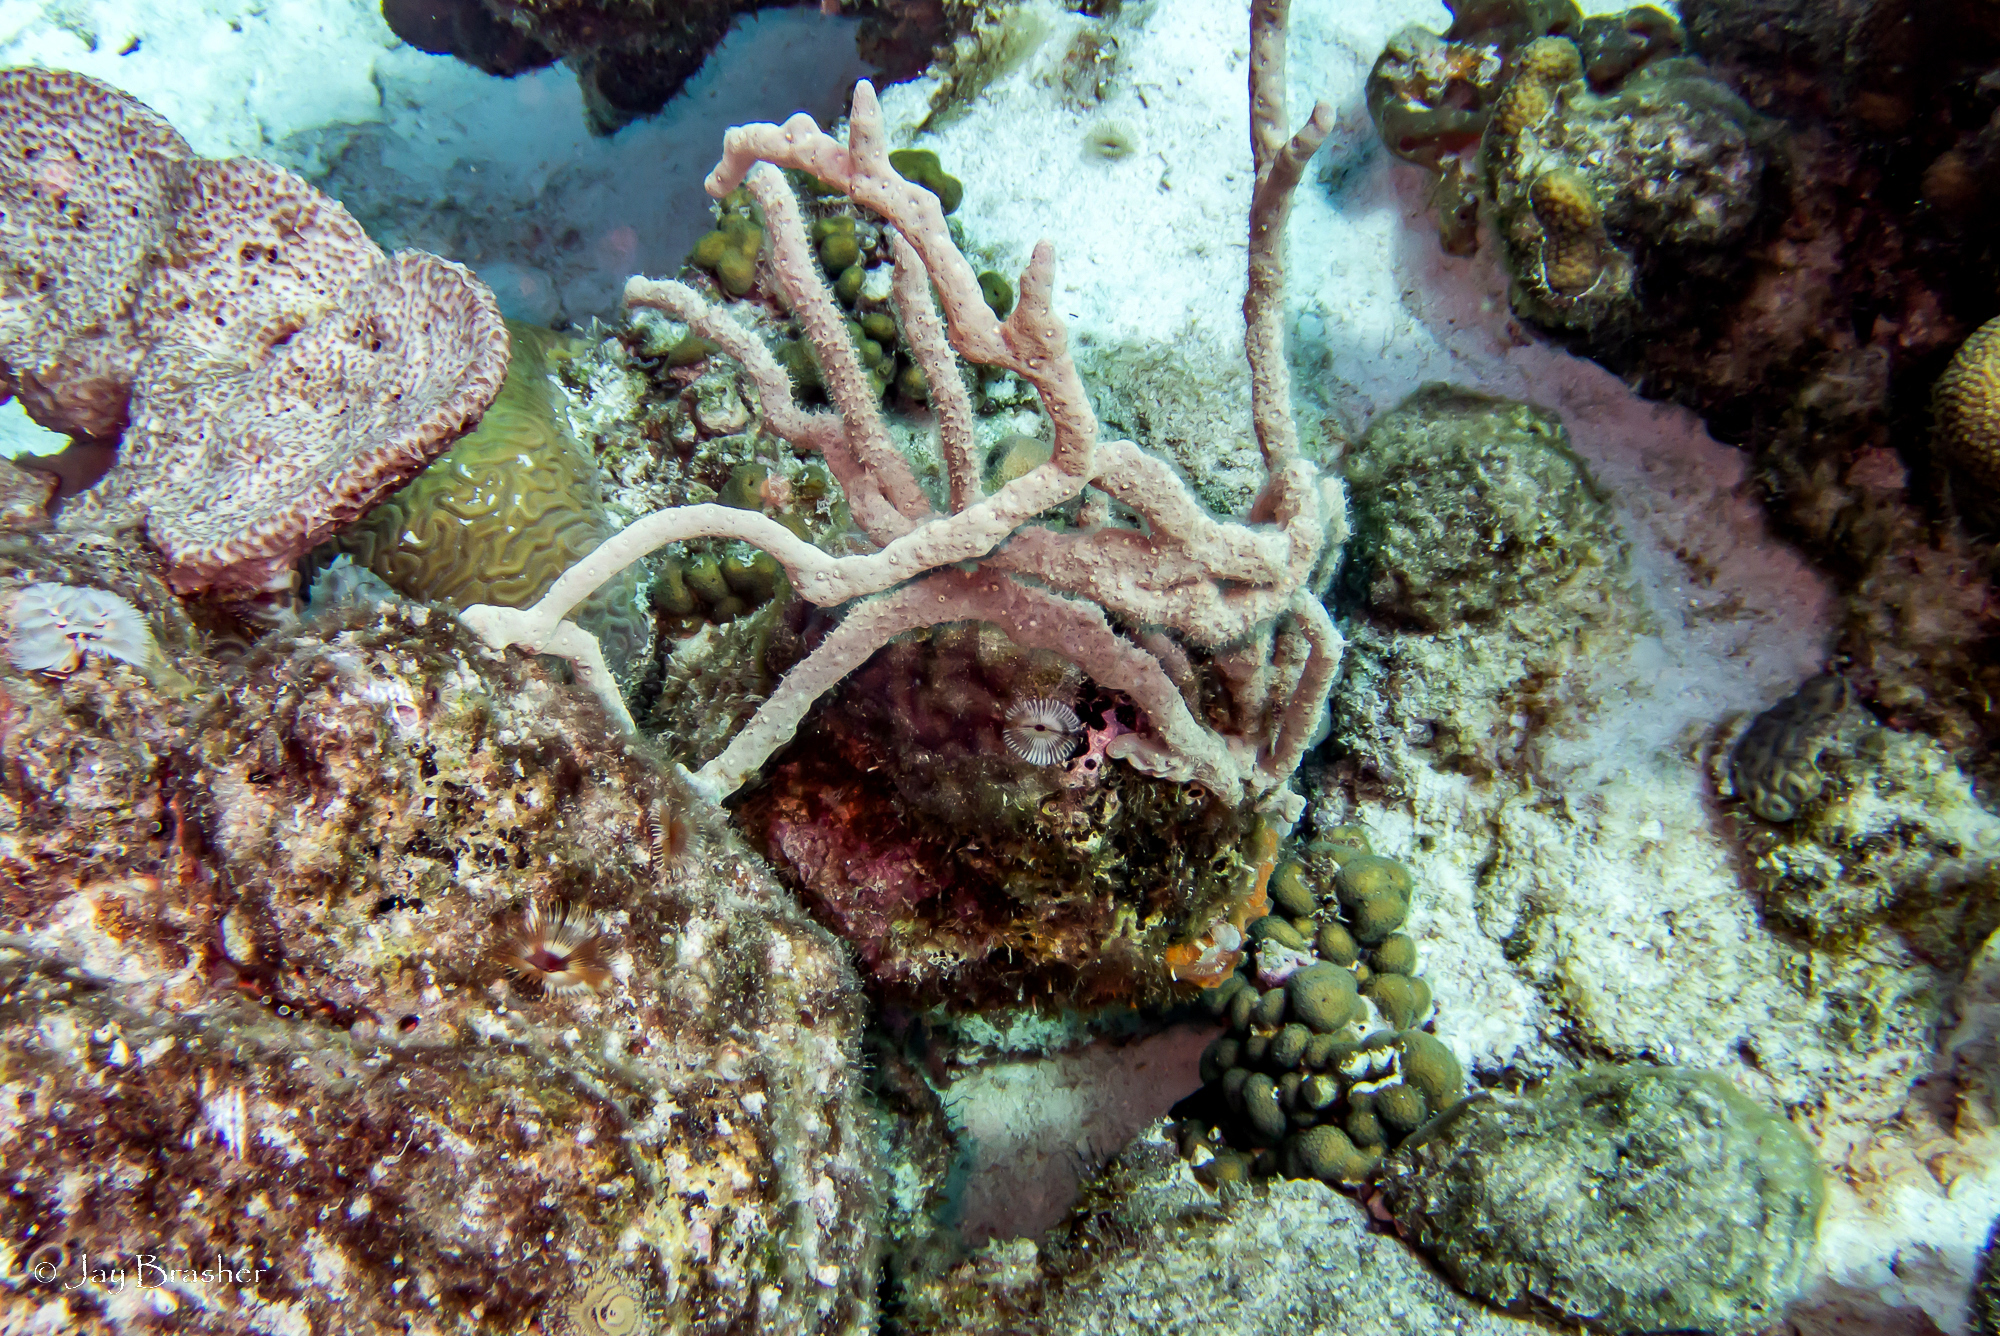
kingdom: Animalia
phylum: Cnidaria
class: Anthozoa
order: Scleractinia
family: Pocilloporidae
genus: Madracis
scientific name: Madracis decactis
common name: Ten-ray star coral
